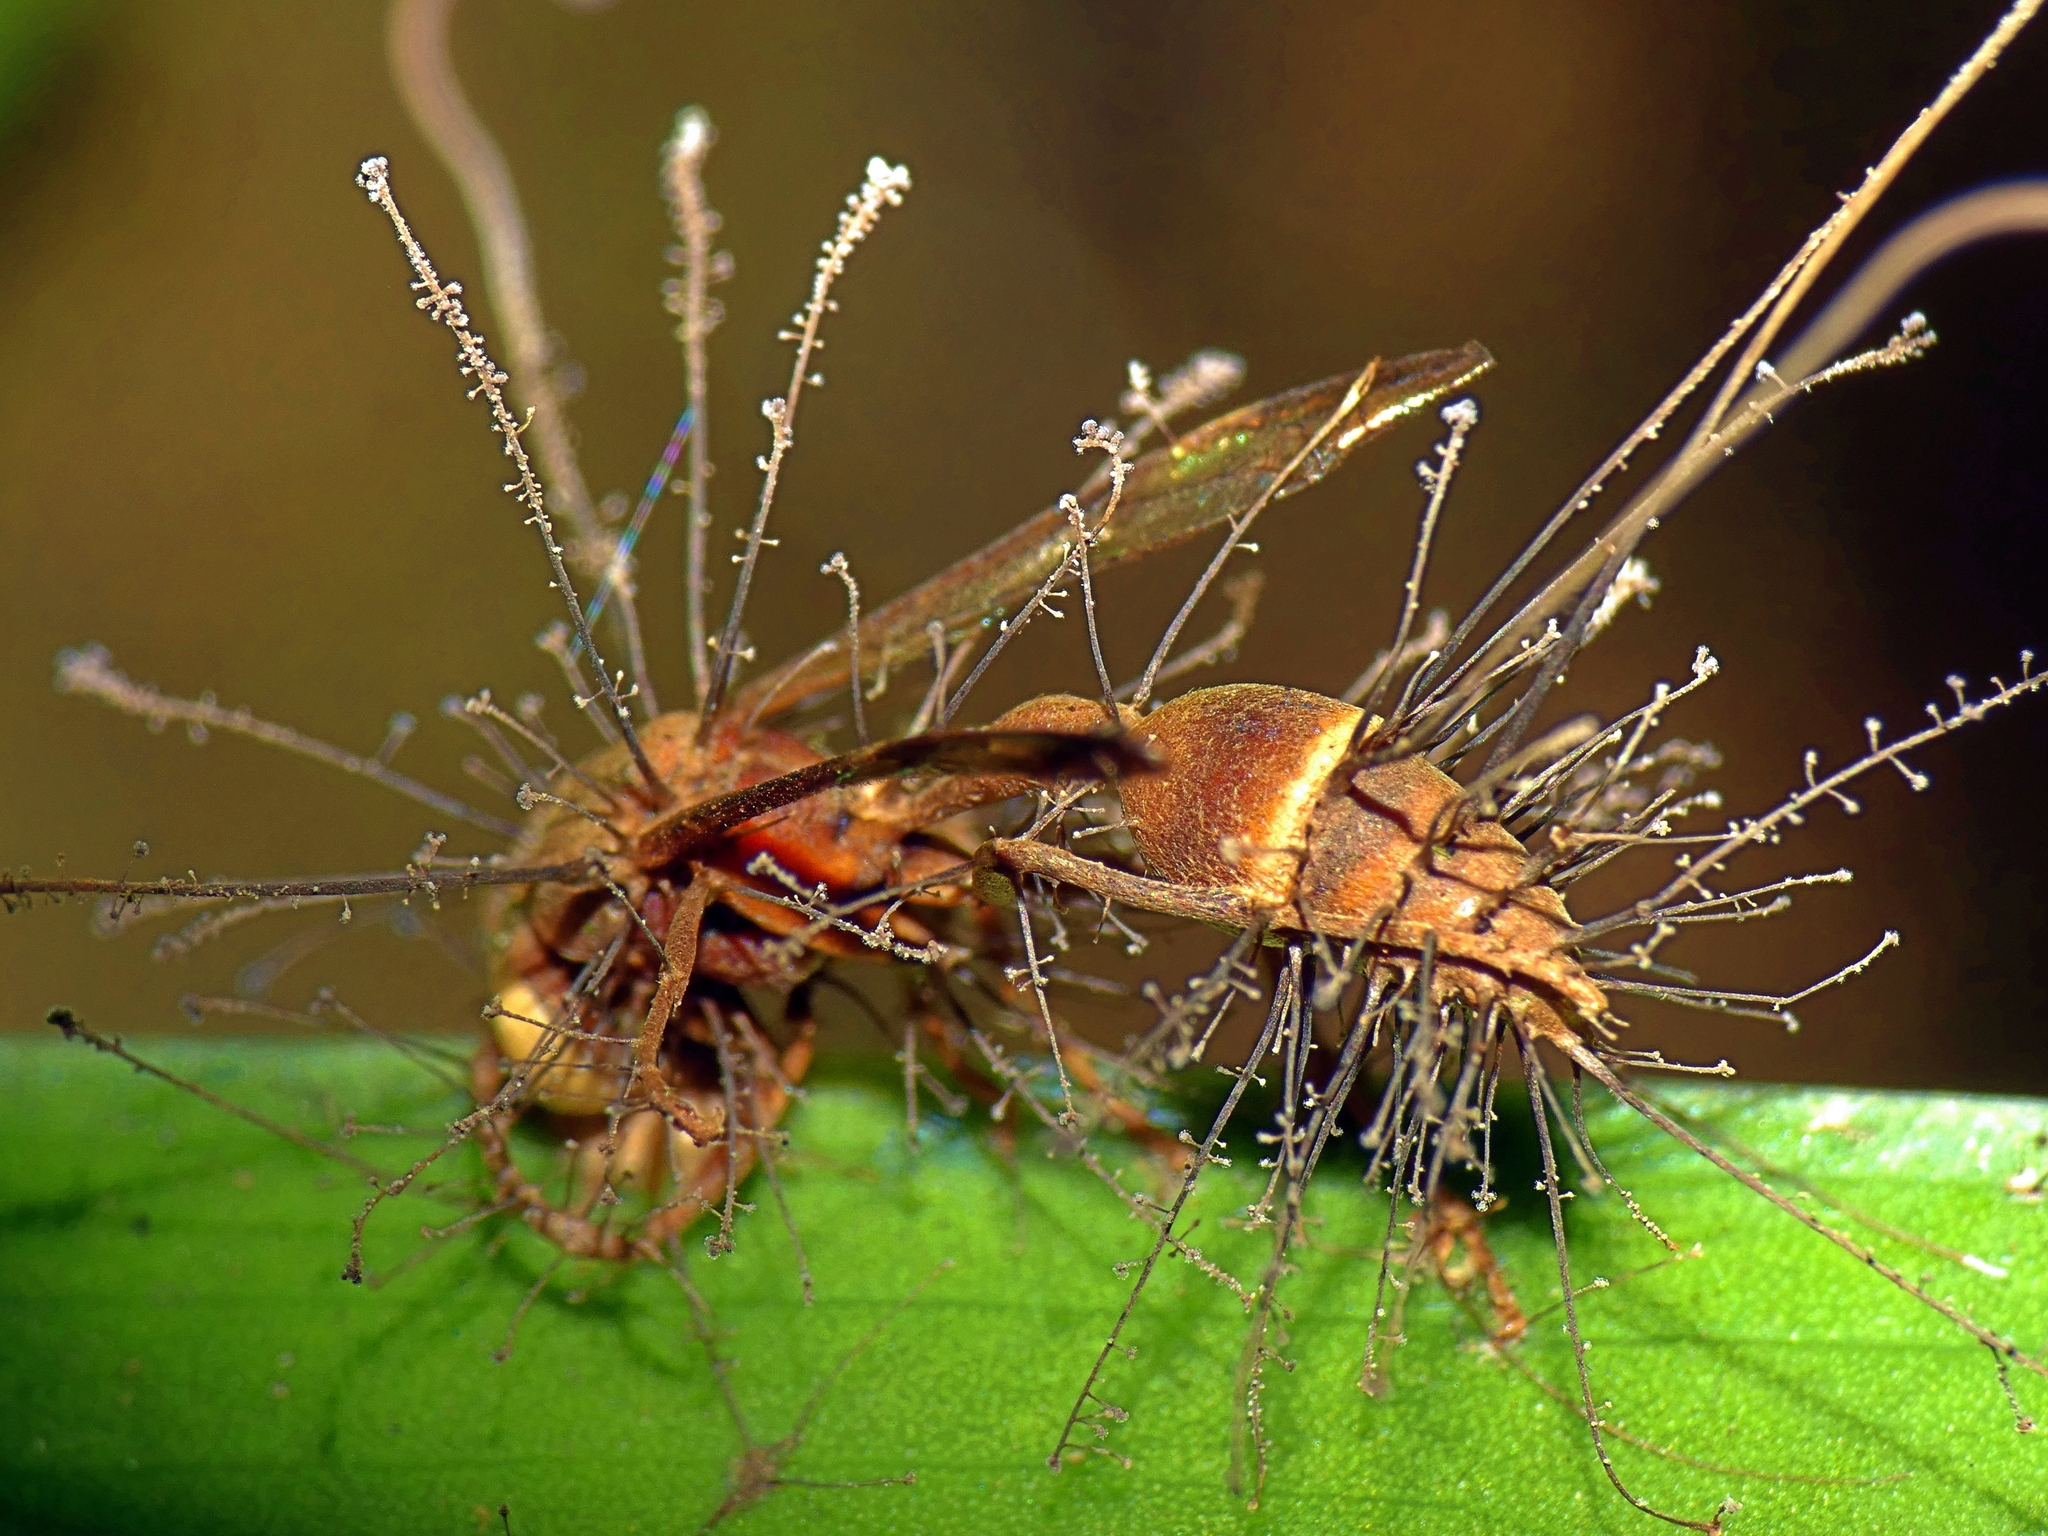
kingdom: Fungi
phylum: Ascomycota
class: Sordariomycetes
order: Hypocreales
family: Ophiocordycipitaceae
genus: Ophiocordyceps
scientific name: Ophiocordyceps humbertii
